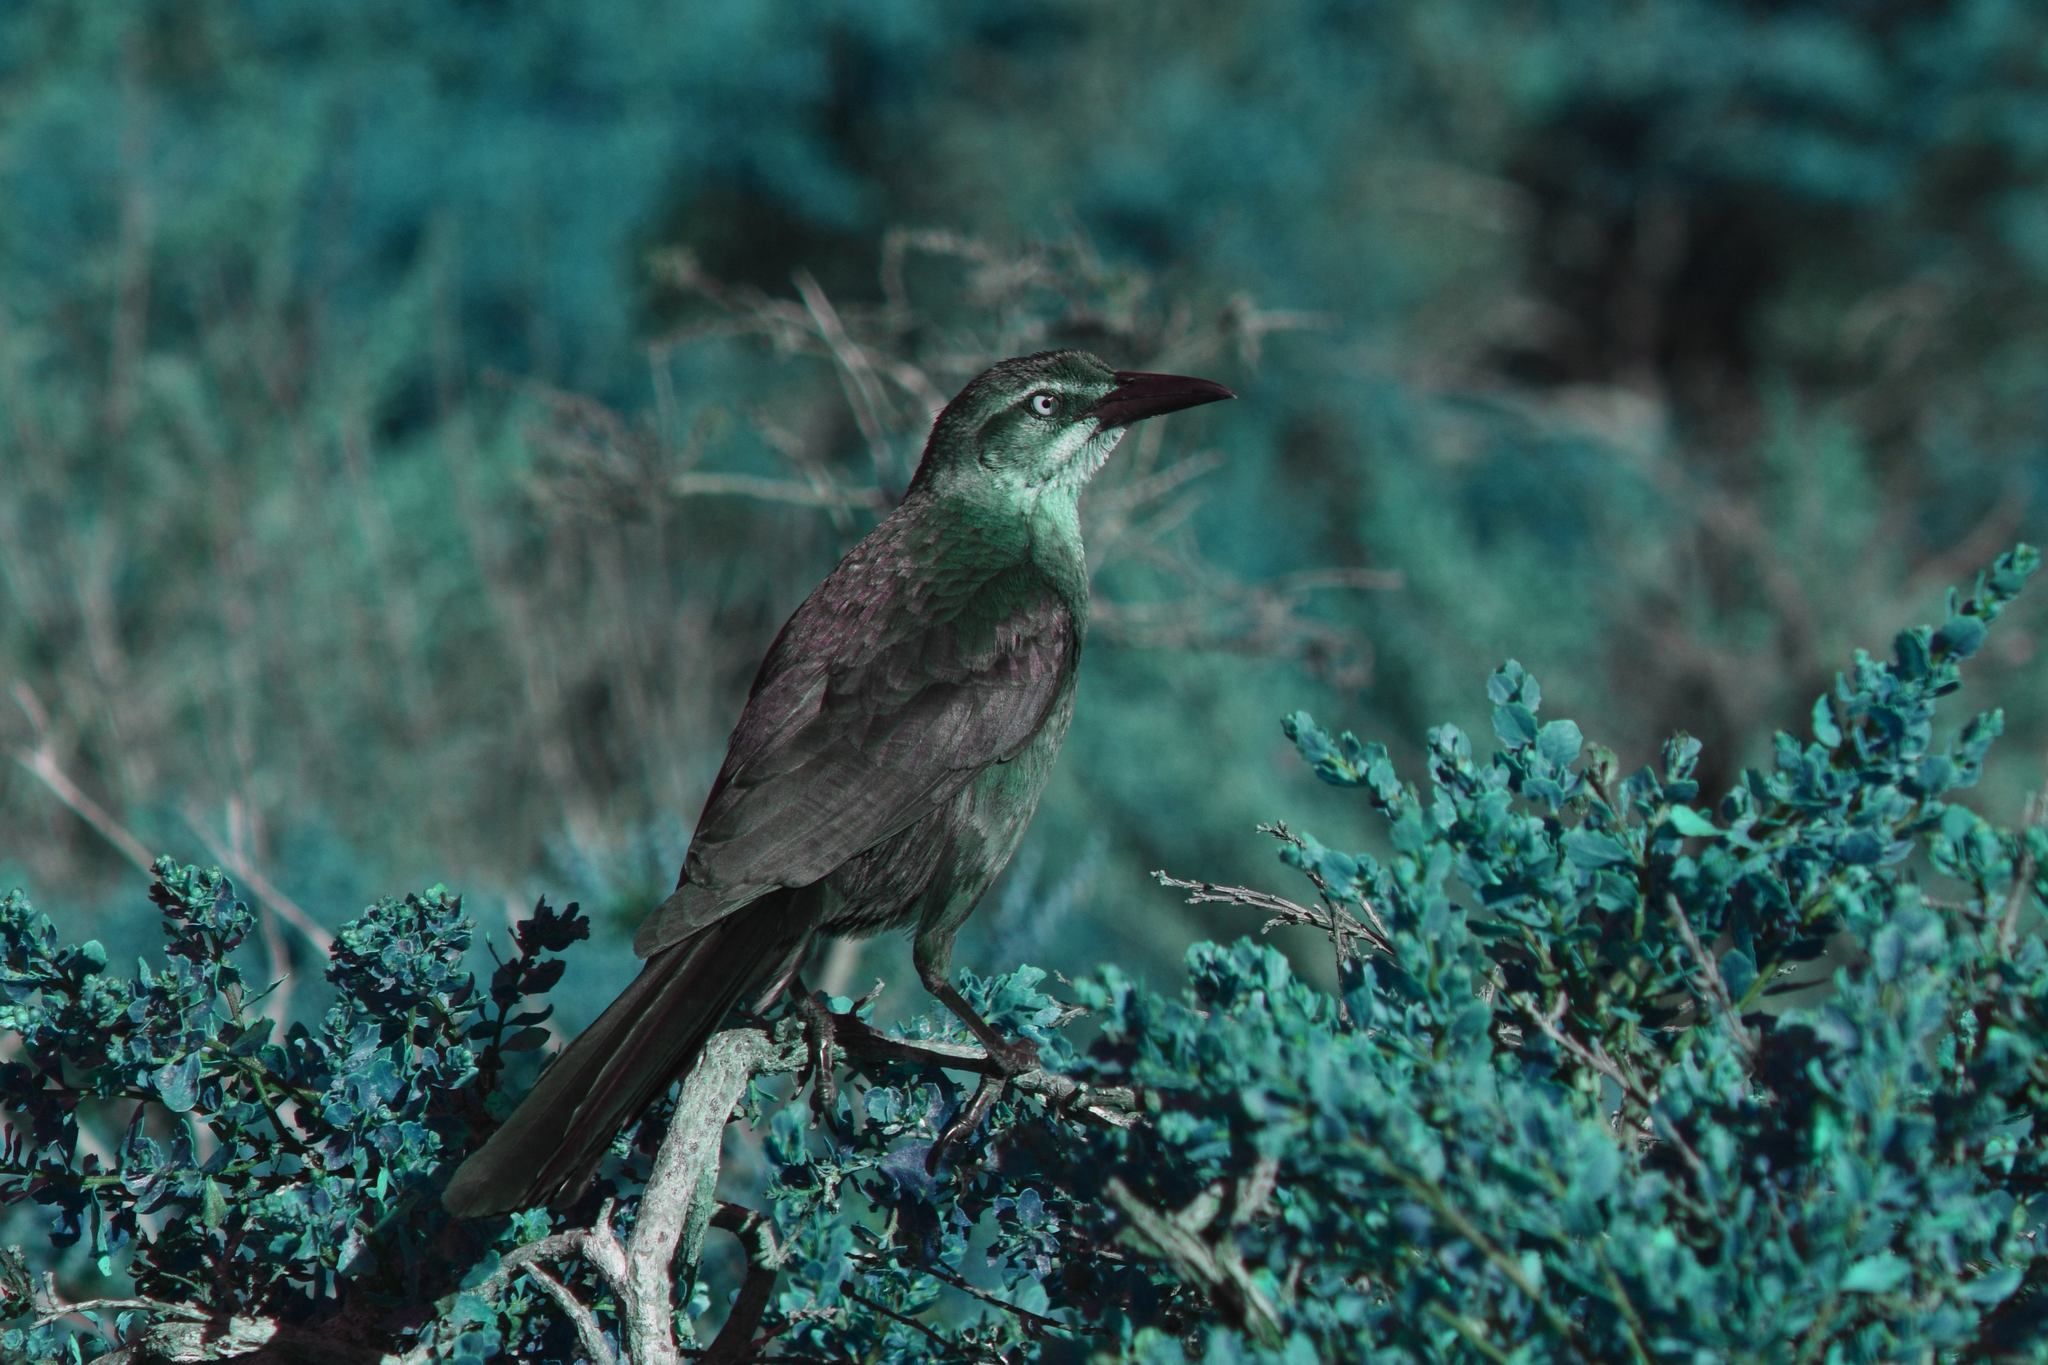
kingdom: Animalia
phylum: Chordata
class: Aves
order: Passeriformes
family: Icteridae
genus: Quiscalus
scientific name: Quiscalus mexicanus
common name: Great-tailed grackle
